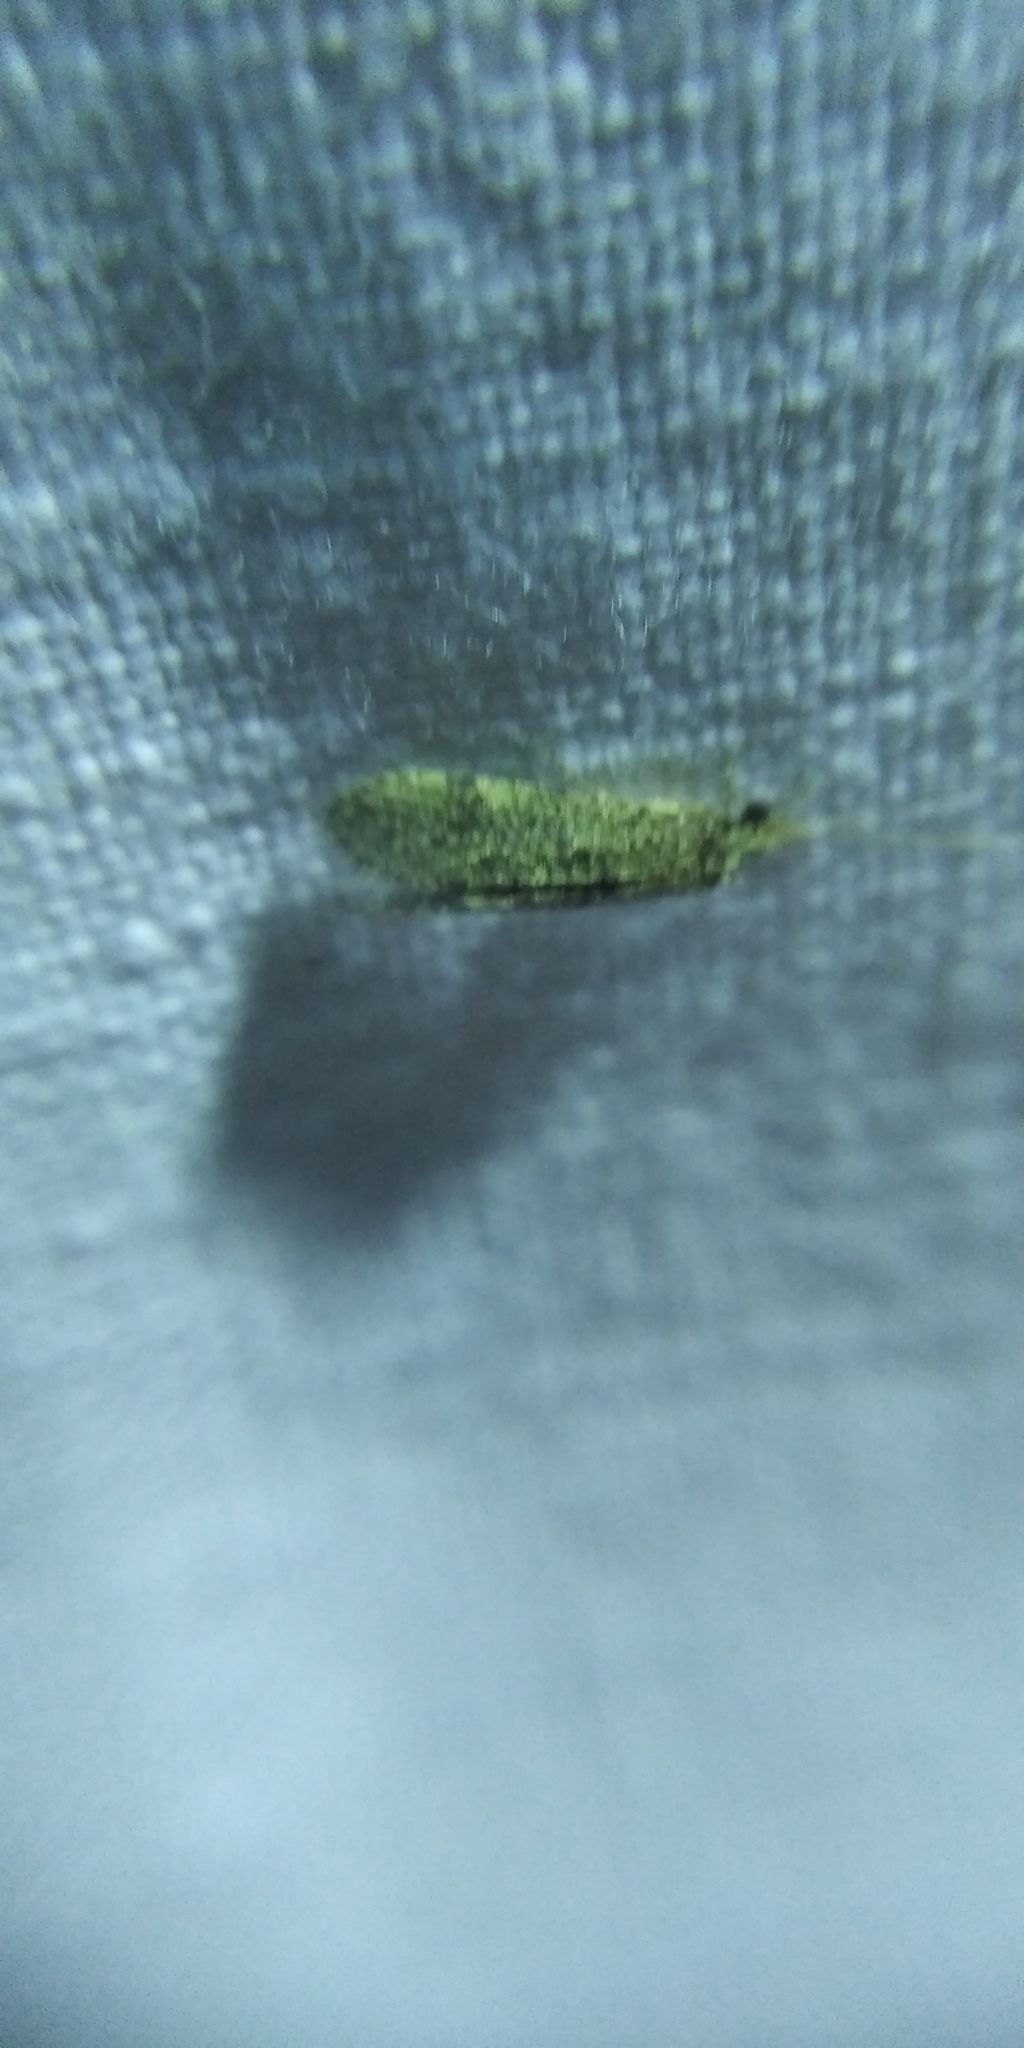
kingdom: Animalia
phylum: Arthropoda
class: Insecta
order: Trichoptera
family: Ecnomidae
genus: Ecnomus
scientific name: Ecnomus tenellus
